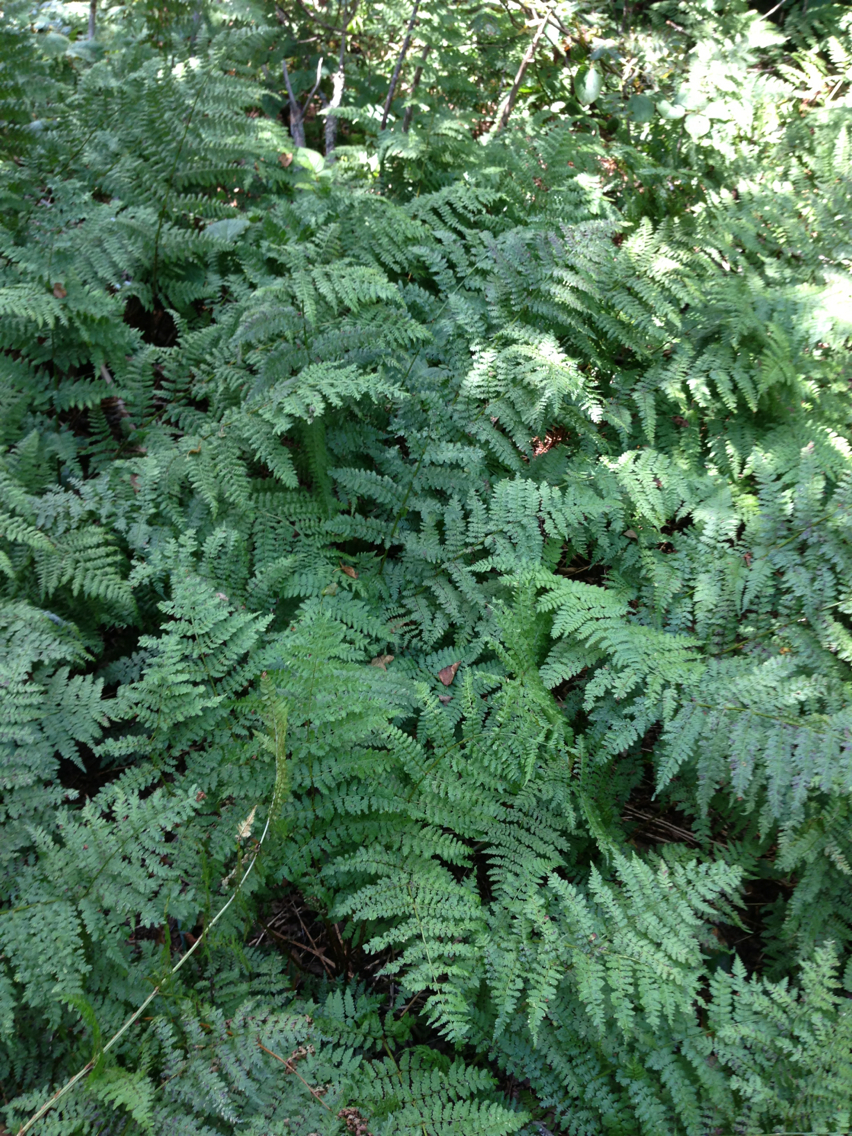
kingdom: Plantae
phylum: Tracheophyta
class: Polypodiopsida
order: Polypodiales
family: Dryopteridaceae
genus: Dryopteris
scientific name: Dryopteris campyloptera
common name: Mountain wood fern
